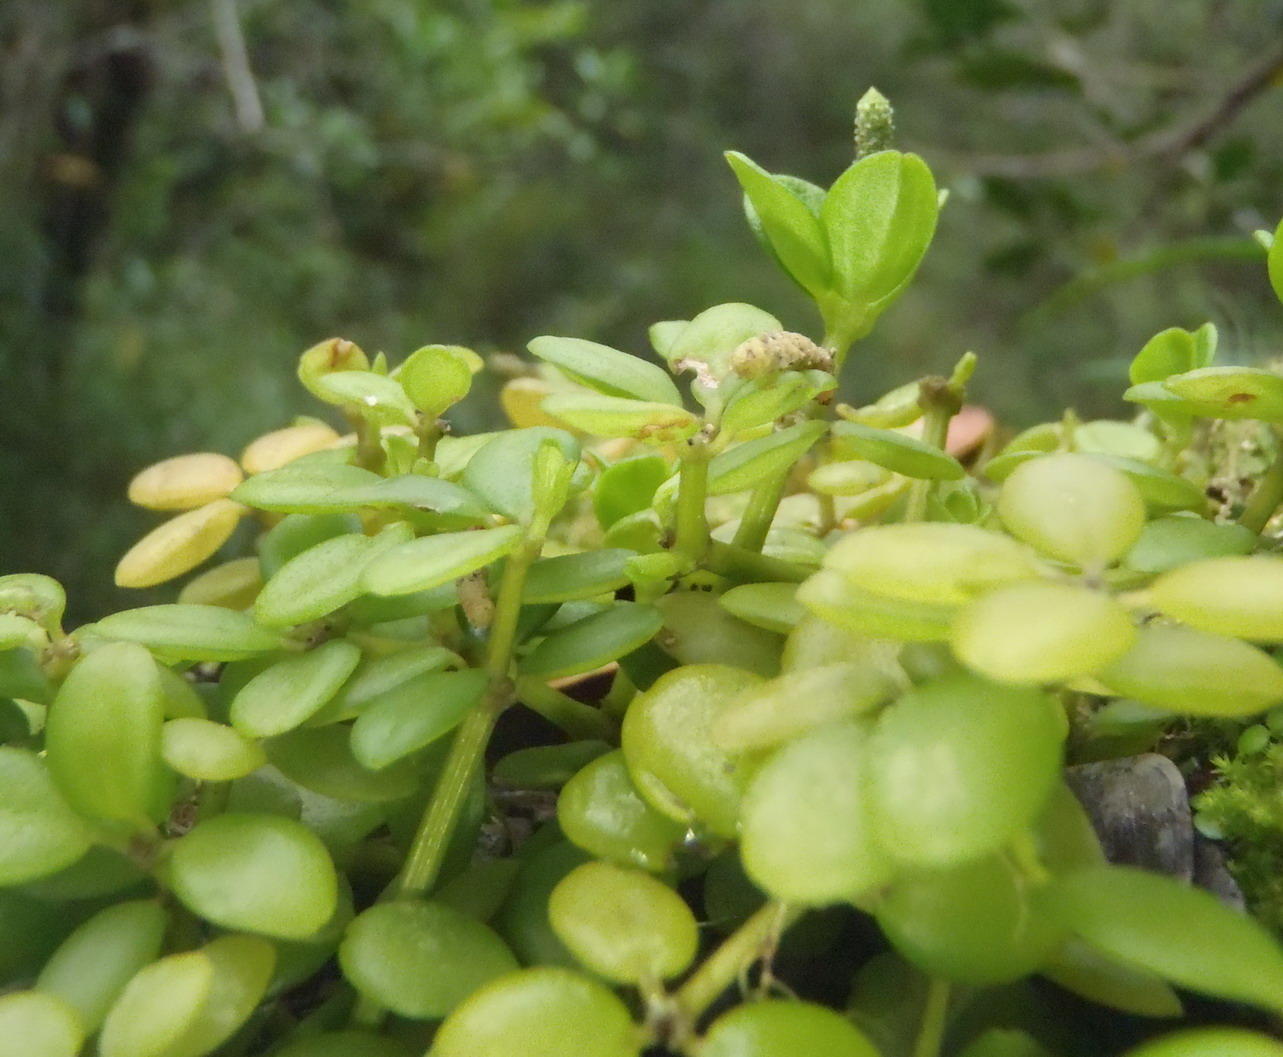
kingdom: Plantae
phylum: Tracheophyta
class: Magnoliopsida
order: Piperales
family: Piperaceae
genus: Peperomia
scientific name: Peperomia tetraphylla
